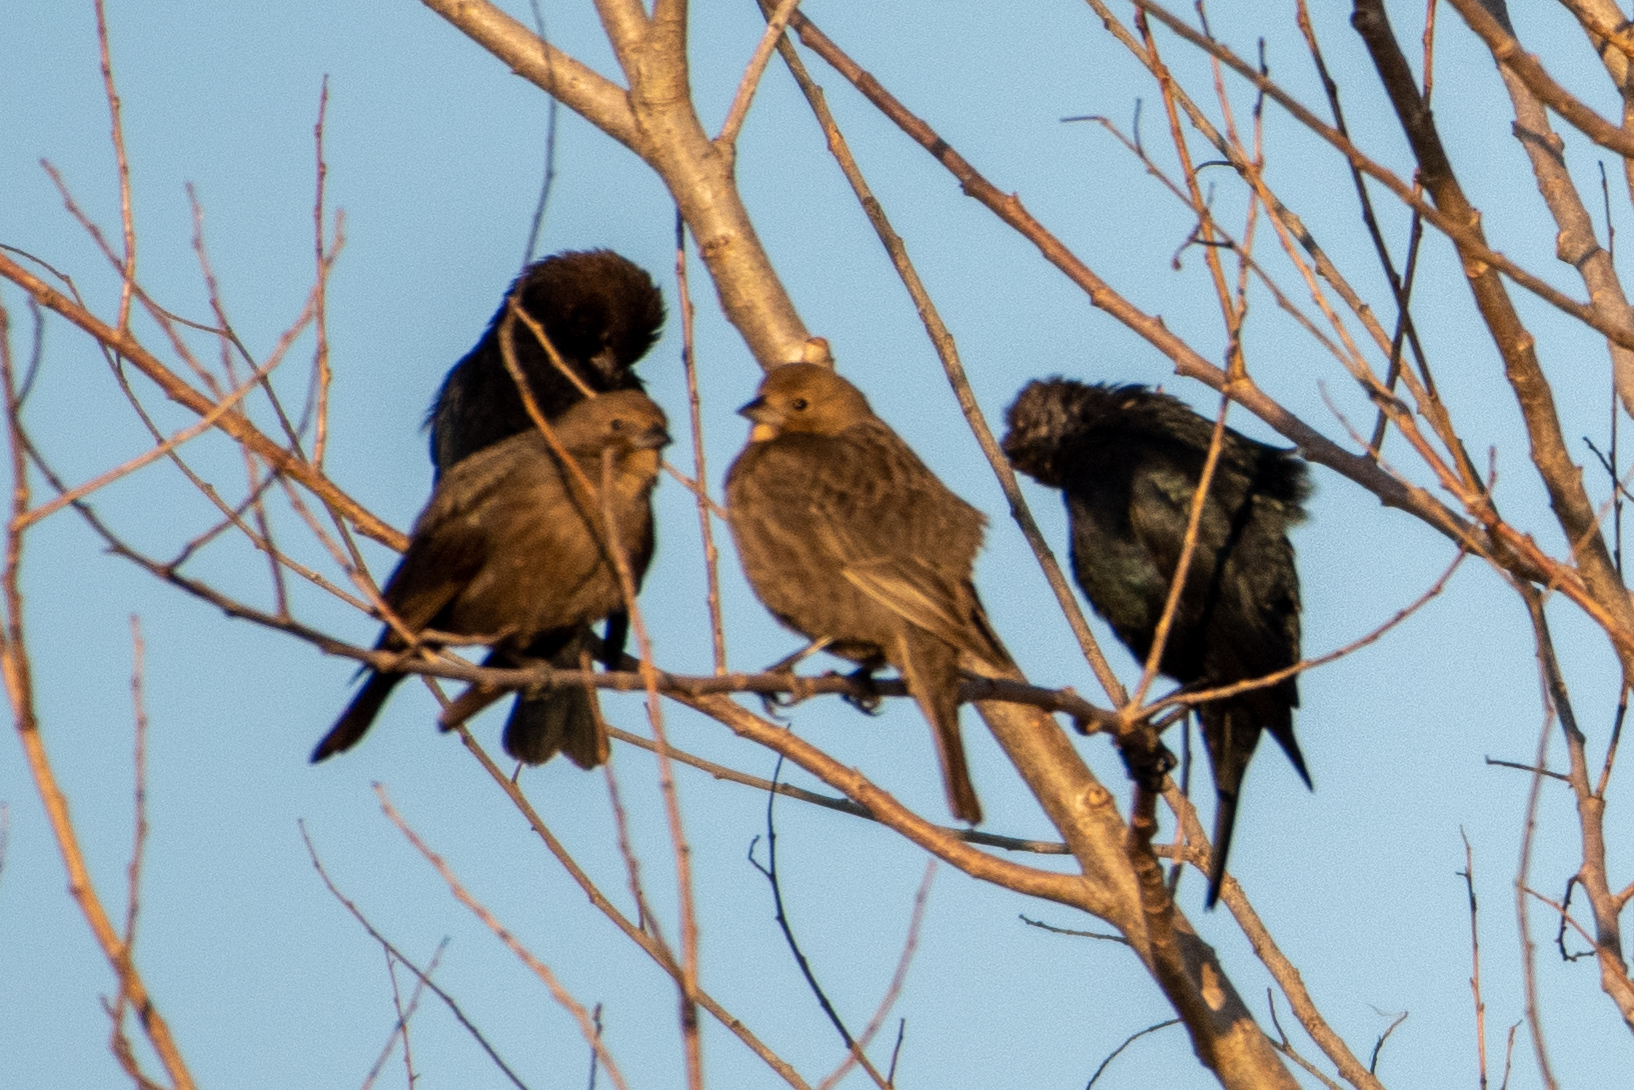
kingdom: Animalia
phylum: Chordata
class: Aves
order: Passeriformes
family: Icteridae
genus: Molothrus
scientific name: Molothrus ater
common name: Brown-headed cowbird
